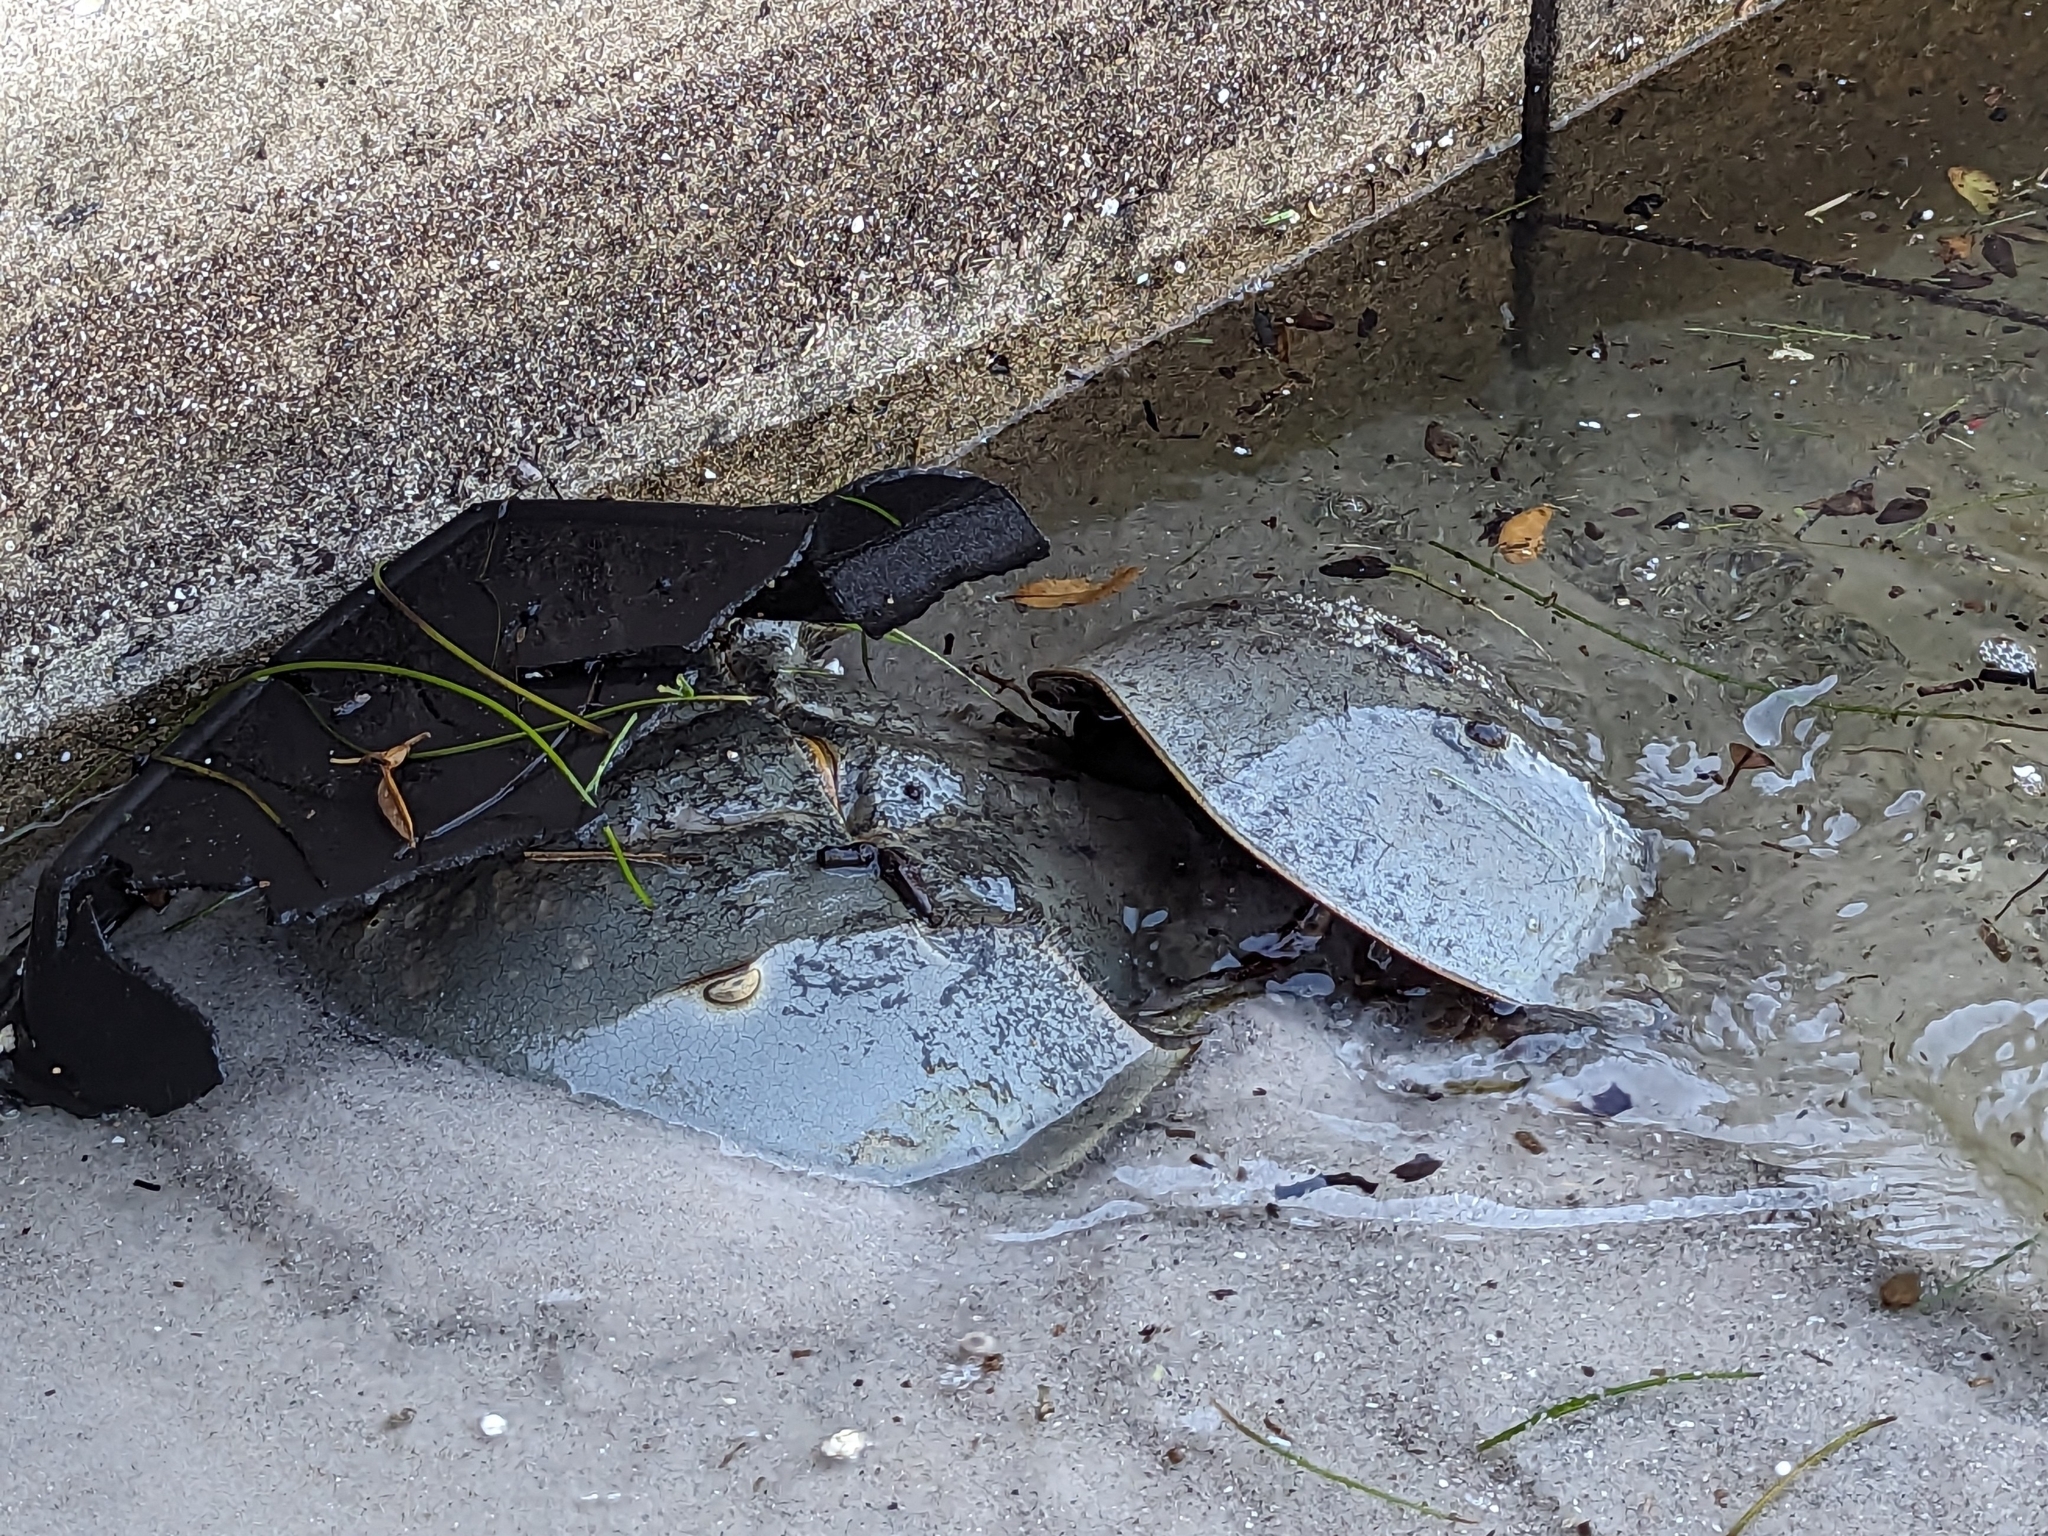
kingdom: Animalia
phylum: Arthropoda
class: Merostomata
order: Xiphosurida
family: Limulidae
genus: Limulus
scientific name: Limulus polyphemus
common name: Horseshoe crab
